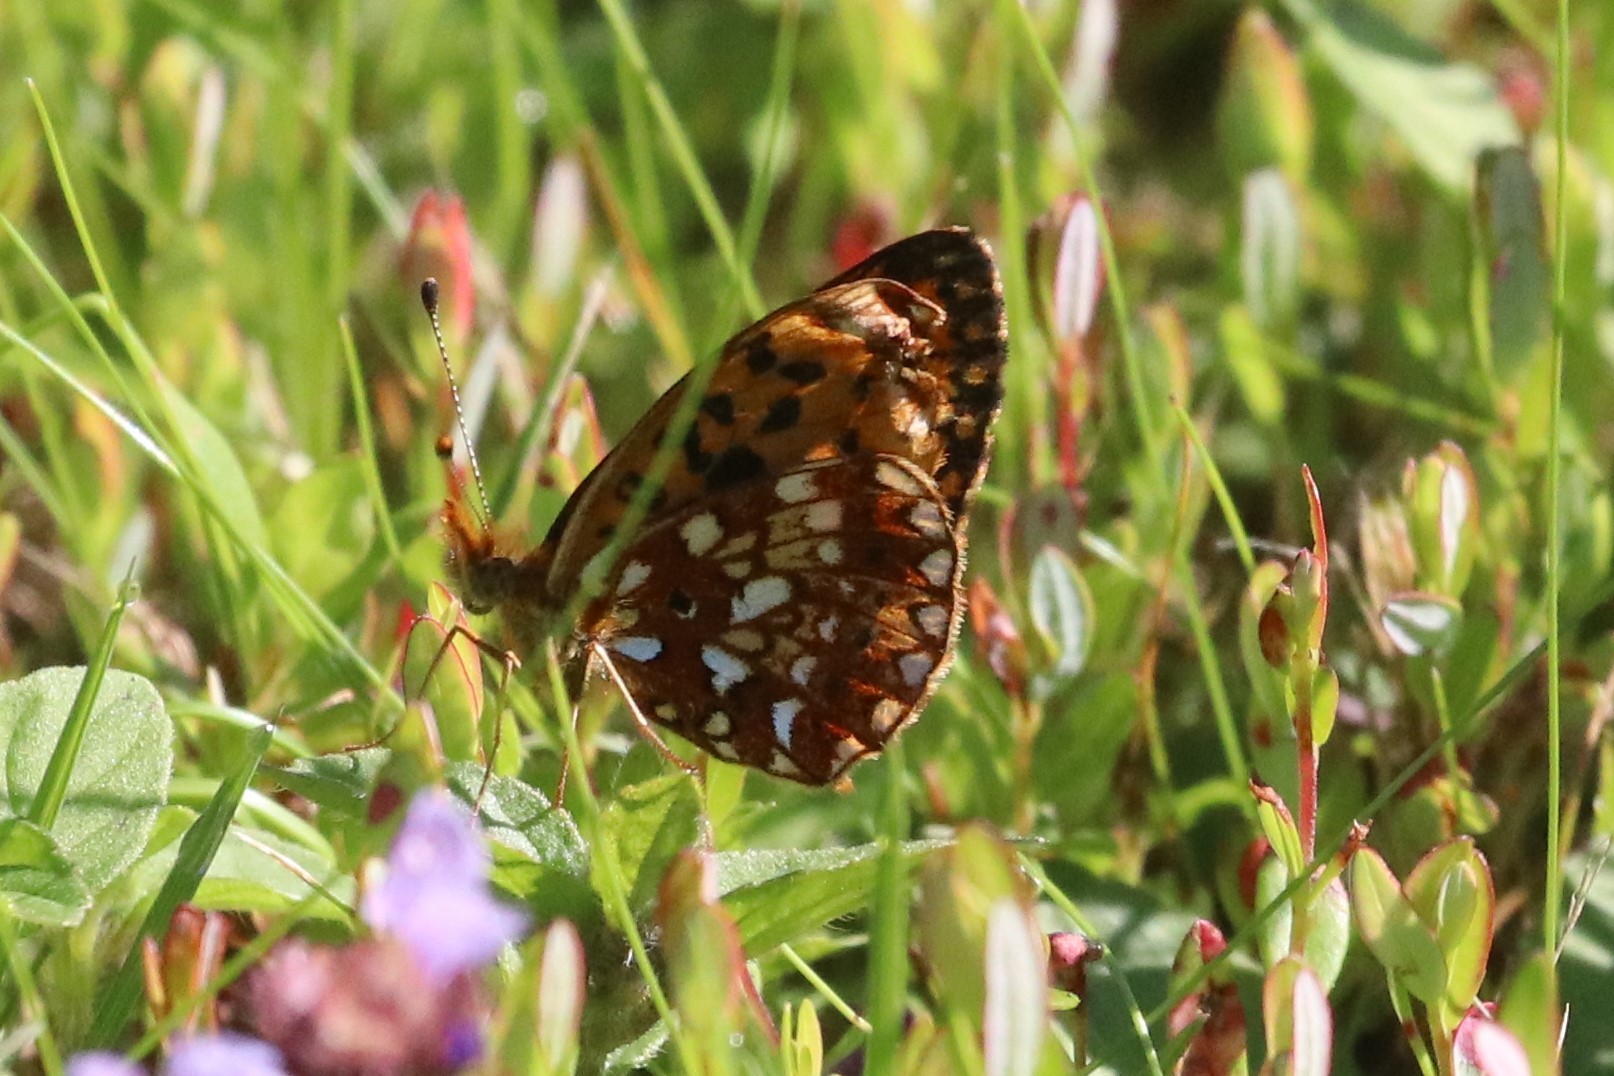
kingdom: Animalia
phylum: Arthropoda
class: Insecta
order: Lepidoptera
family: Nymphalidae
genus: Boloria
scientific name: Boloria
